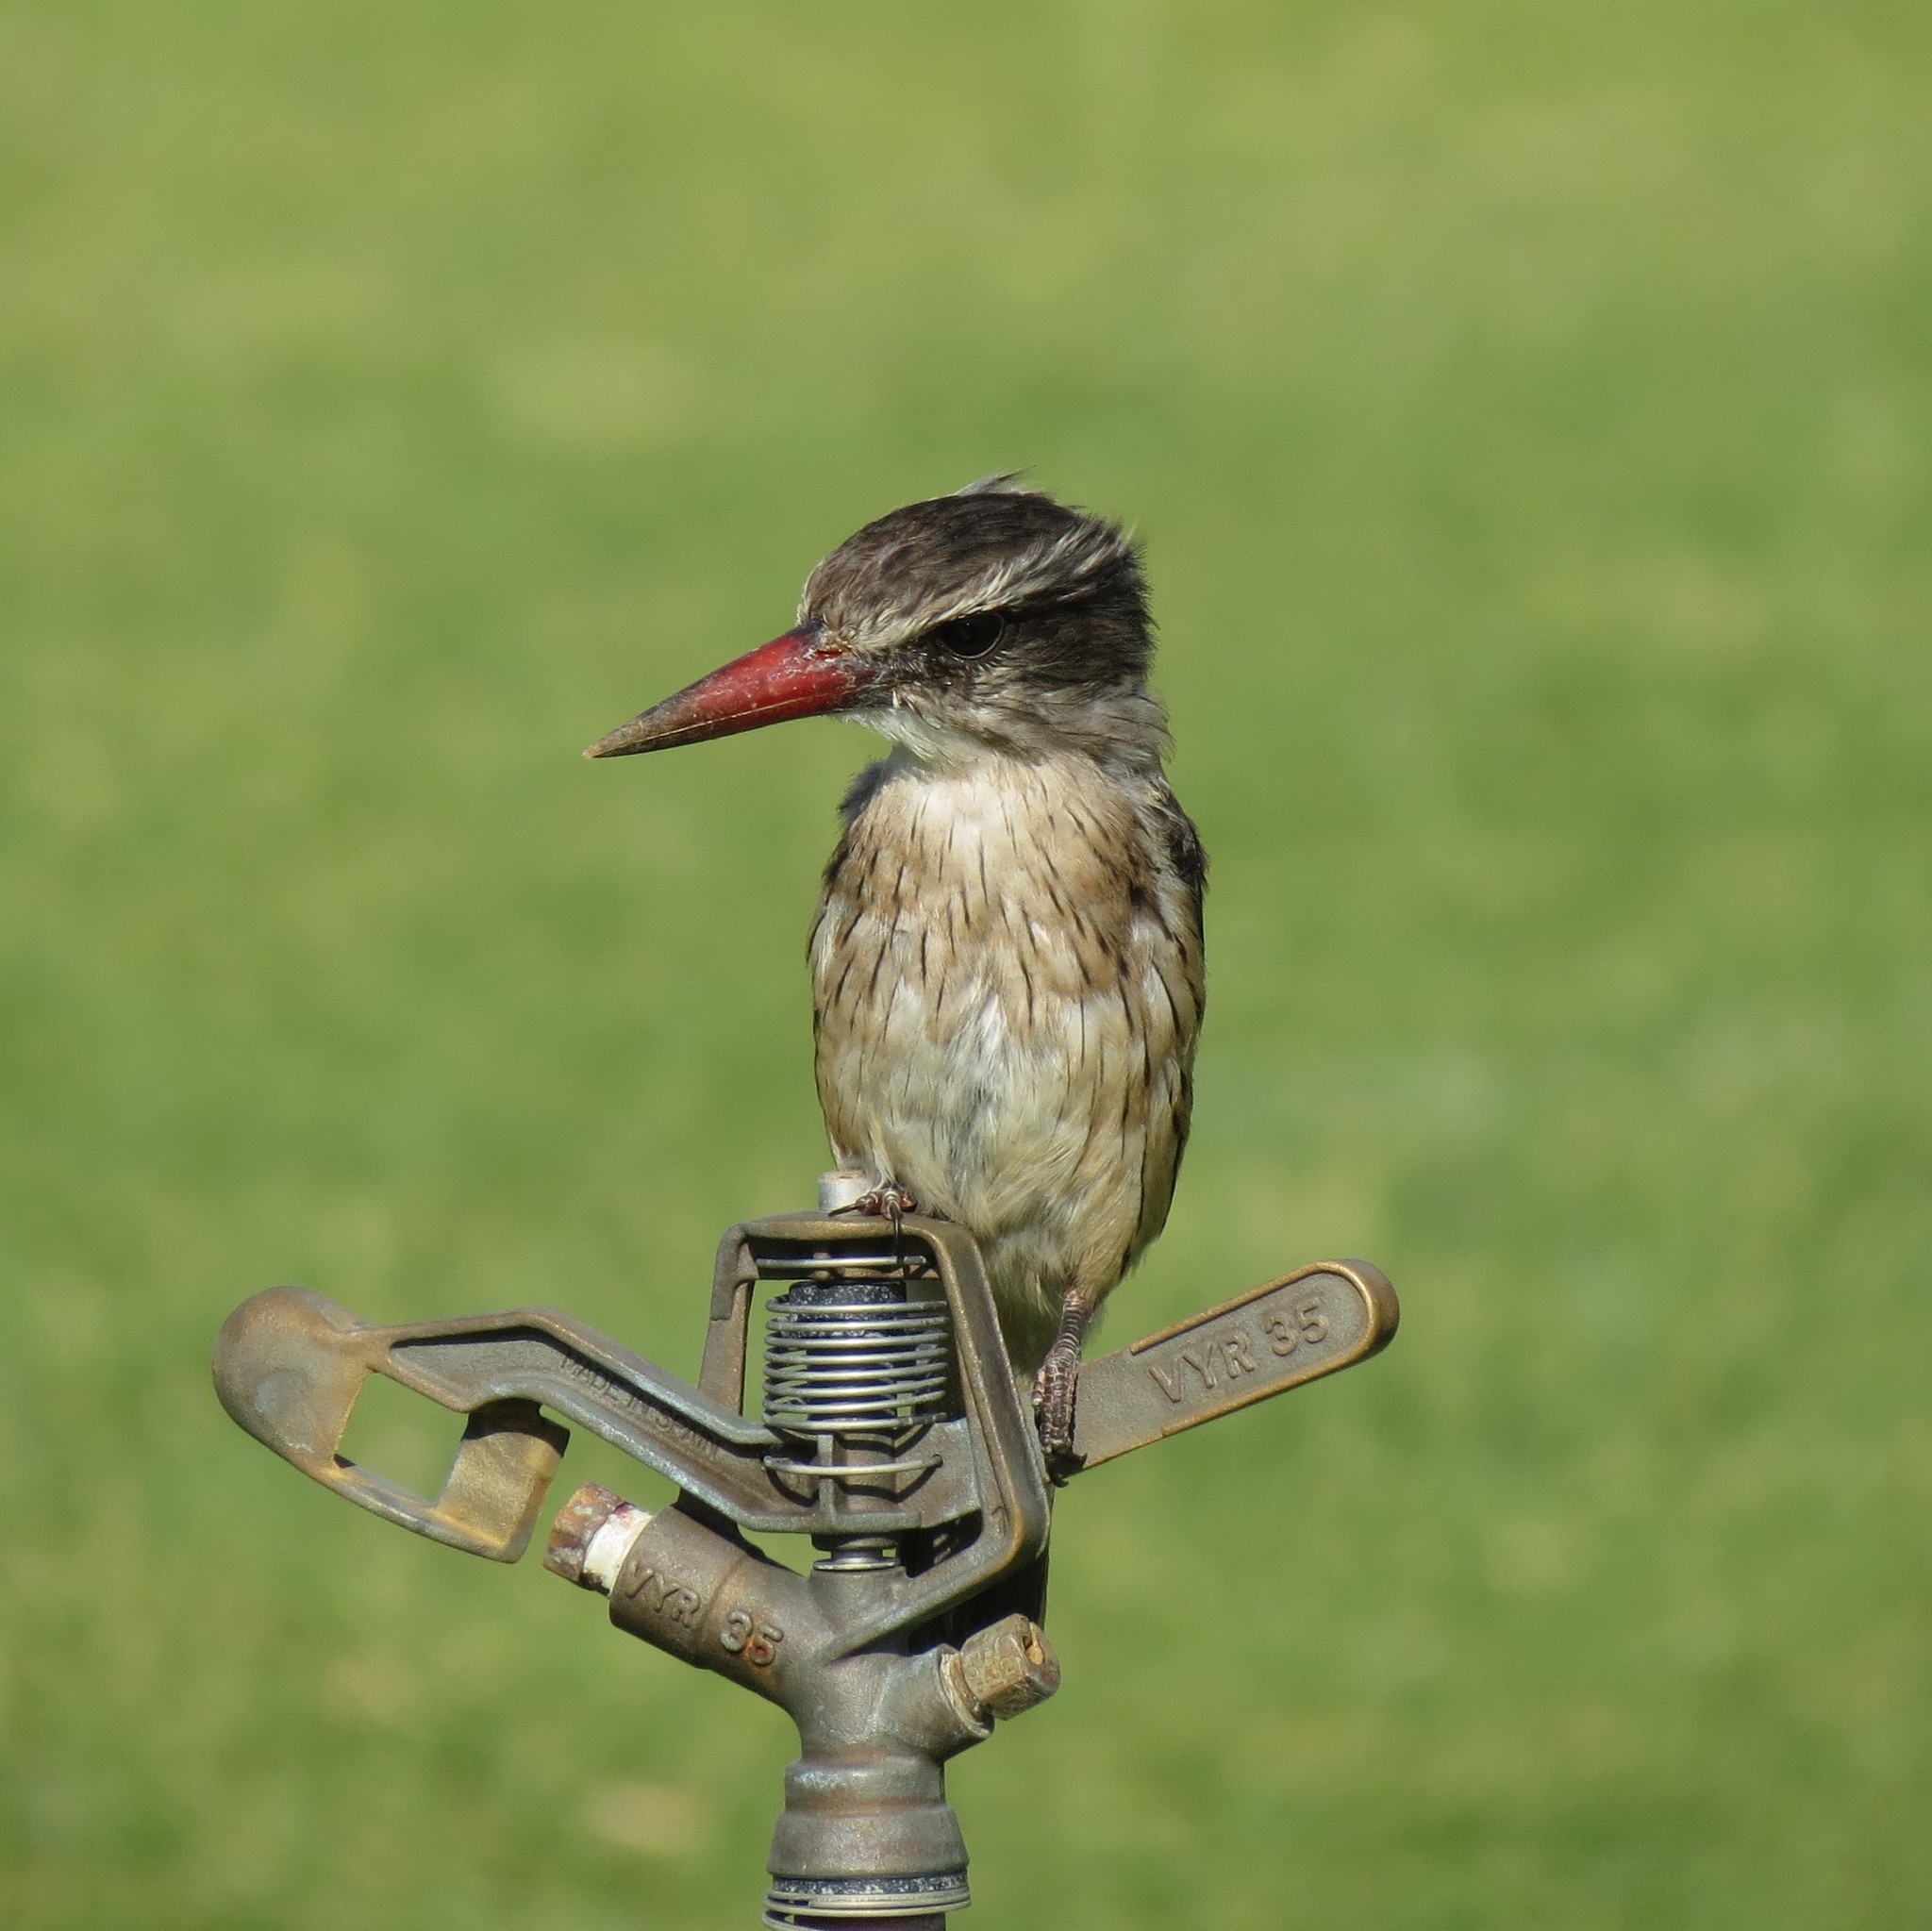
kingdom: Animalia
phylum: Chordata
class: Aves
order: Coraciiformes
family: Alcedinidae
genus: Halcyon
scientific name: Halcyon albiventris
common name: Brown-hooded kingfisher
